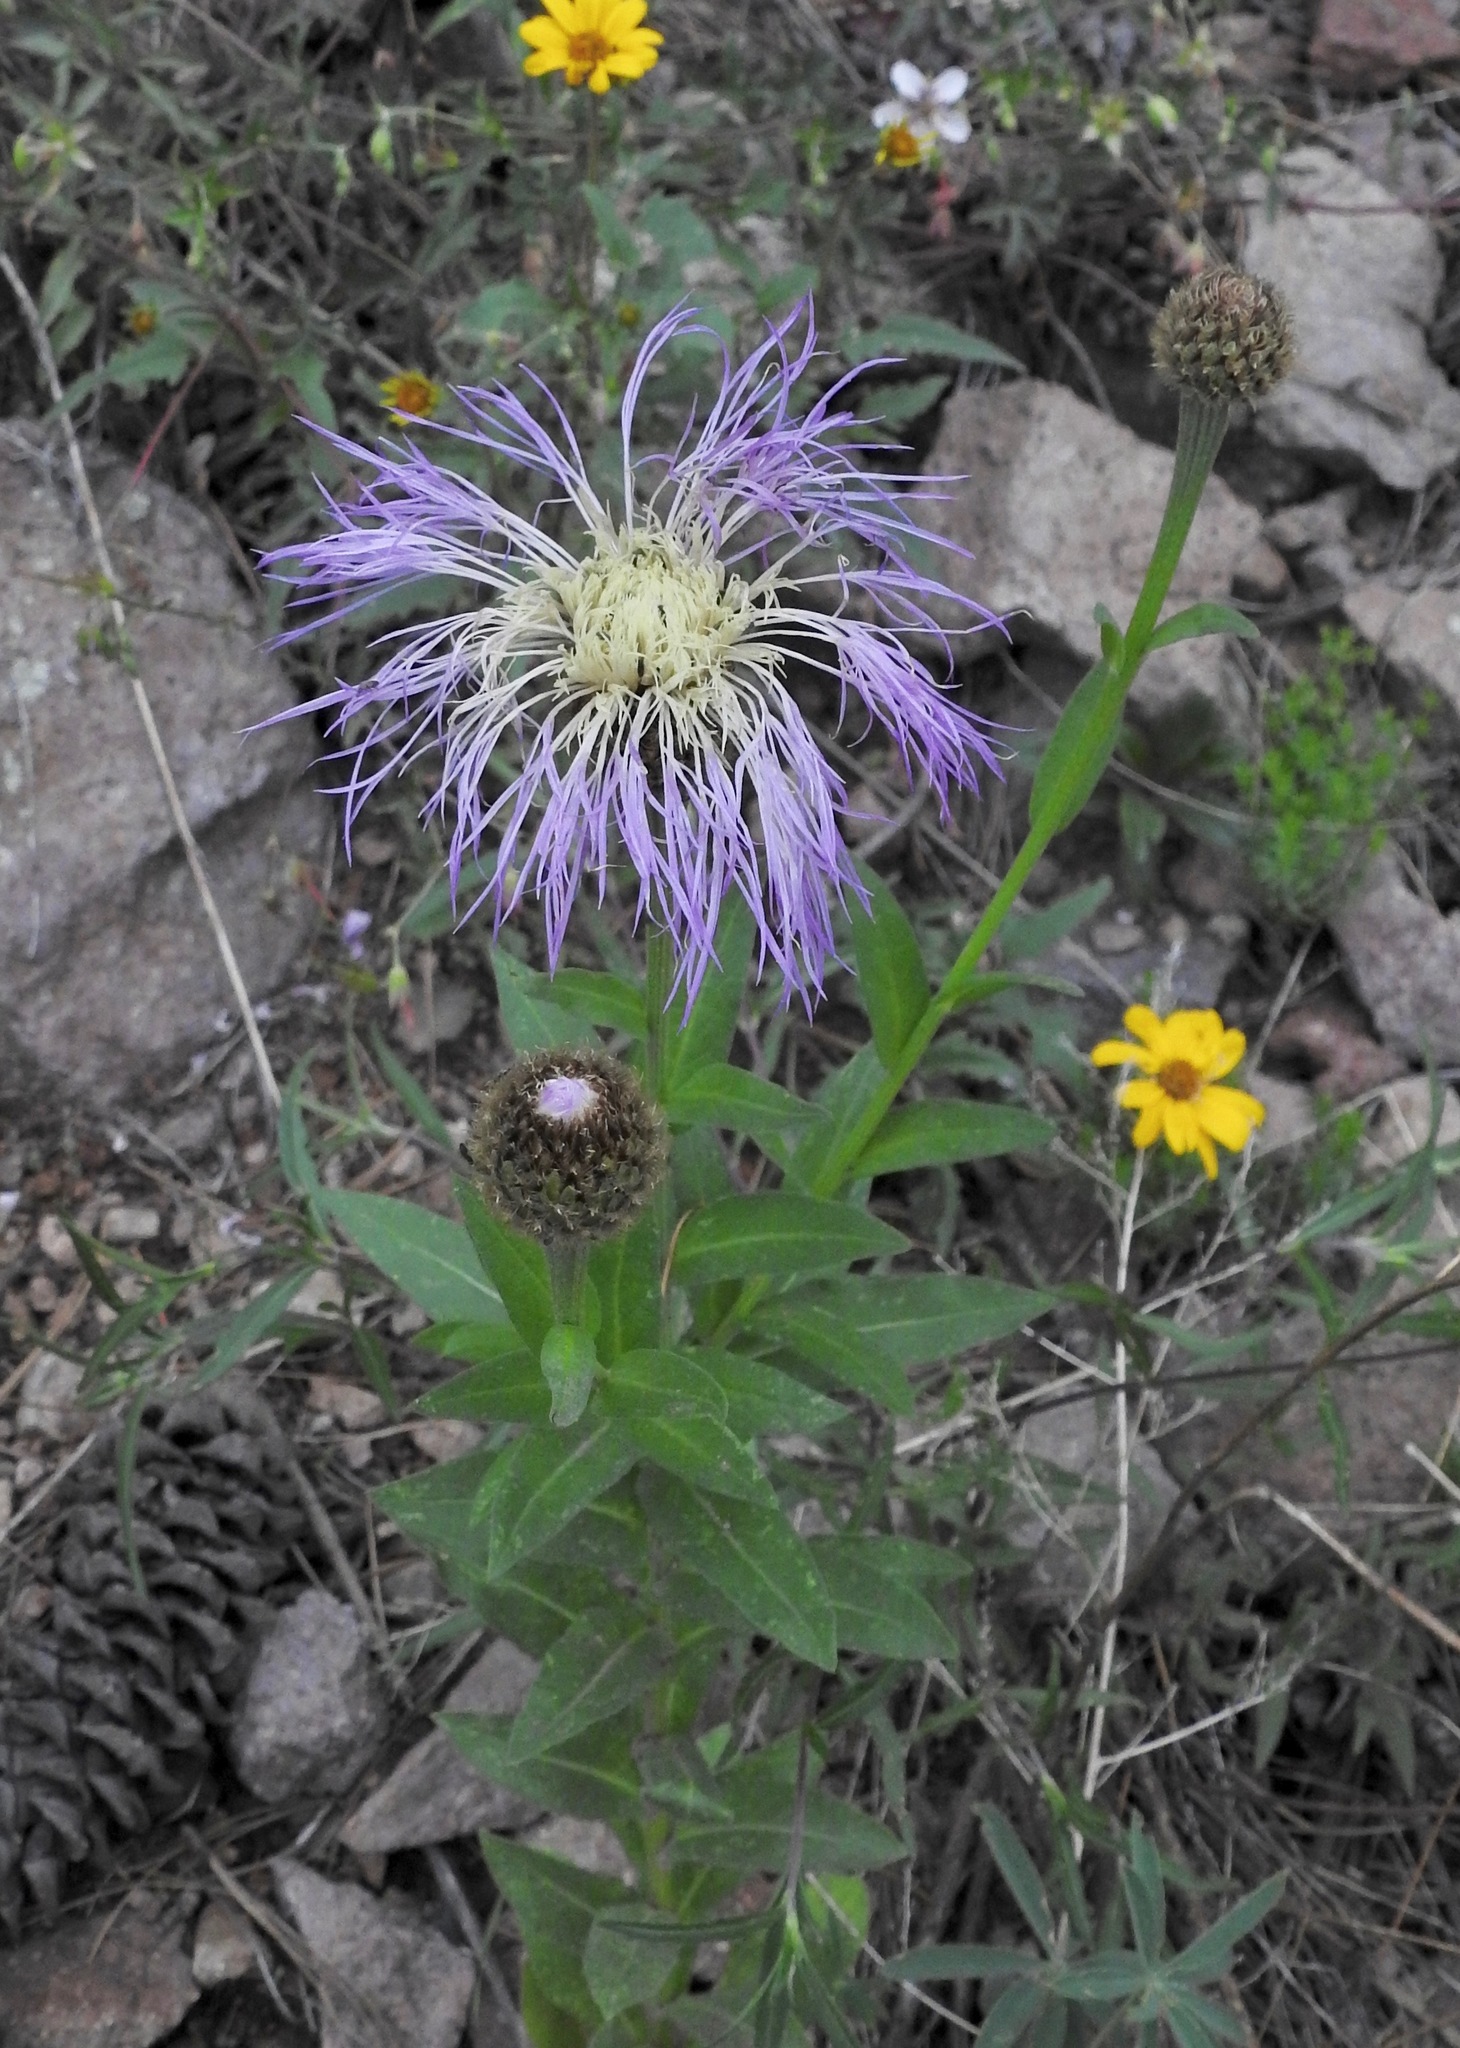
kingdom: Plantae
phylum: Tracheophyta
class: Magnoliopsida
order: Asterales
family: Asteraceae
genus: Plectocephalus
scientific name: Plectocephalus rothrockii
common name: Mexican basketflower
